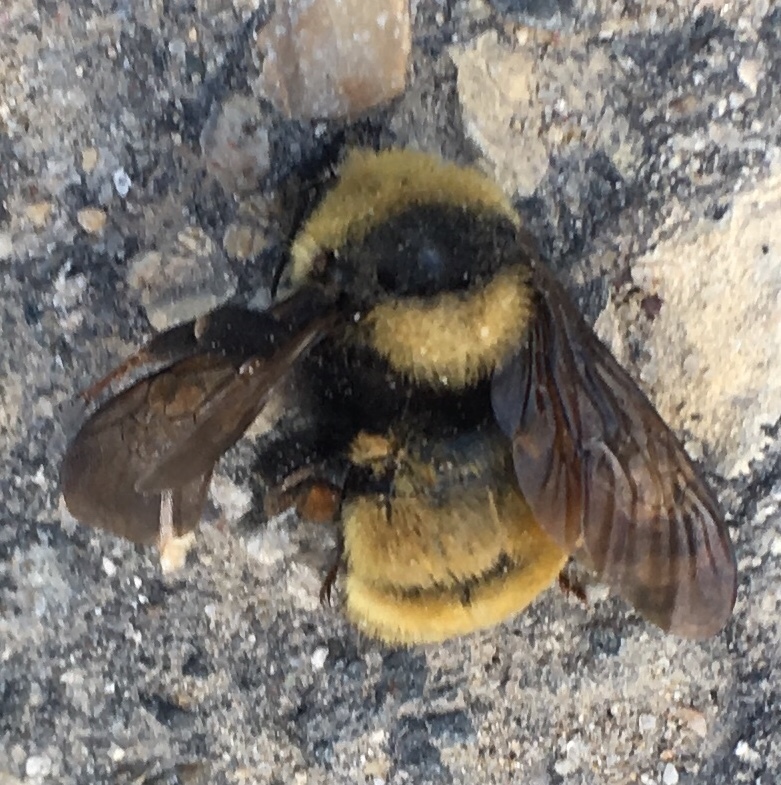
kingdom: Animalia
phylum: Arthropoda
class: Insecta
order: Hymenoptera
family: Apidae
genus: Bombus
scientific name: Bombus borealis
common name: Northern amber bumble bee
